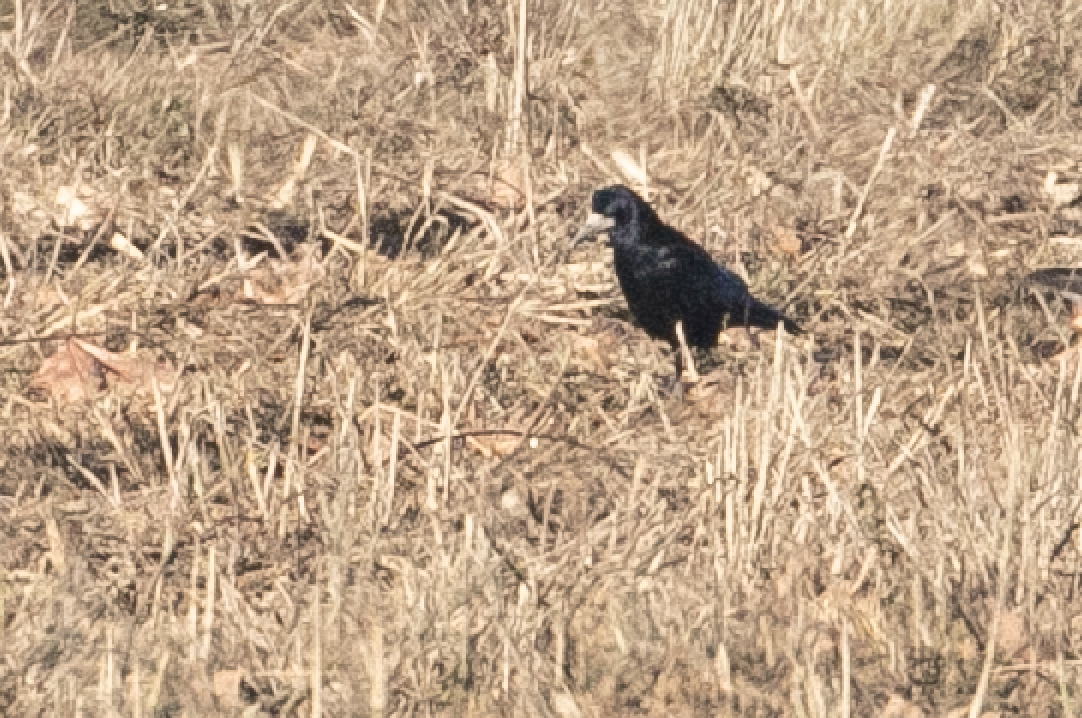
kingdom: Animalia
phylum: Chordata
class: Aves
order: Passeriformes
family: Corvidae
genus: Corvus
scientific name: Corvus frugilegus
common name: Rook
